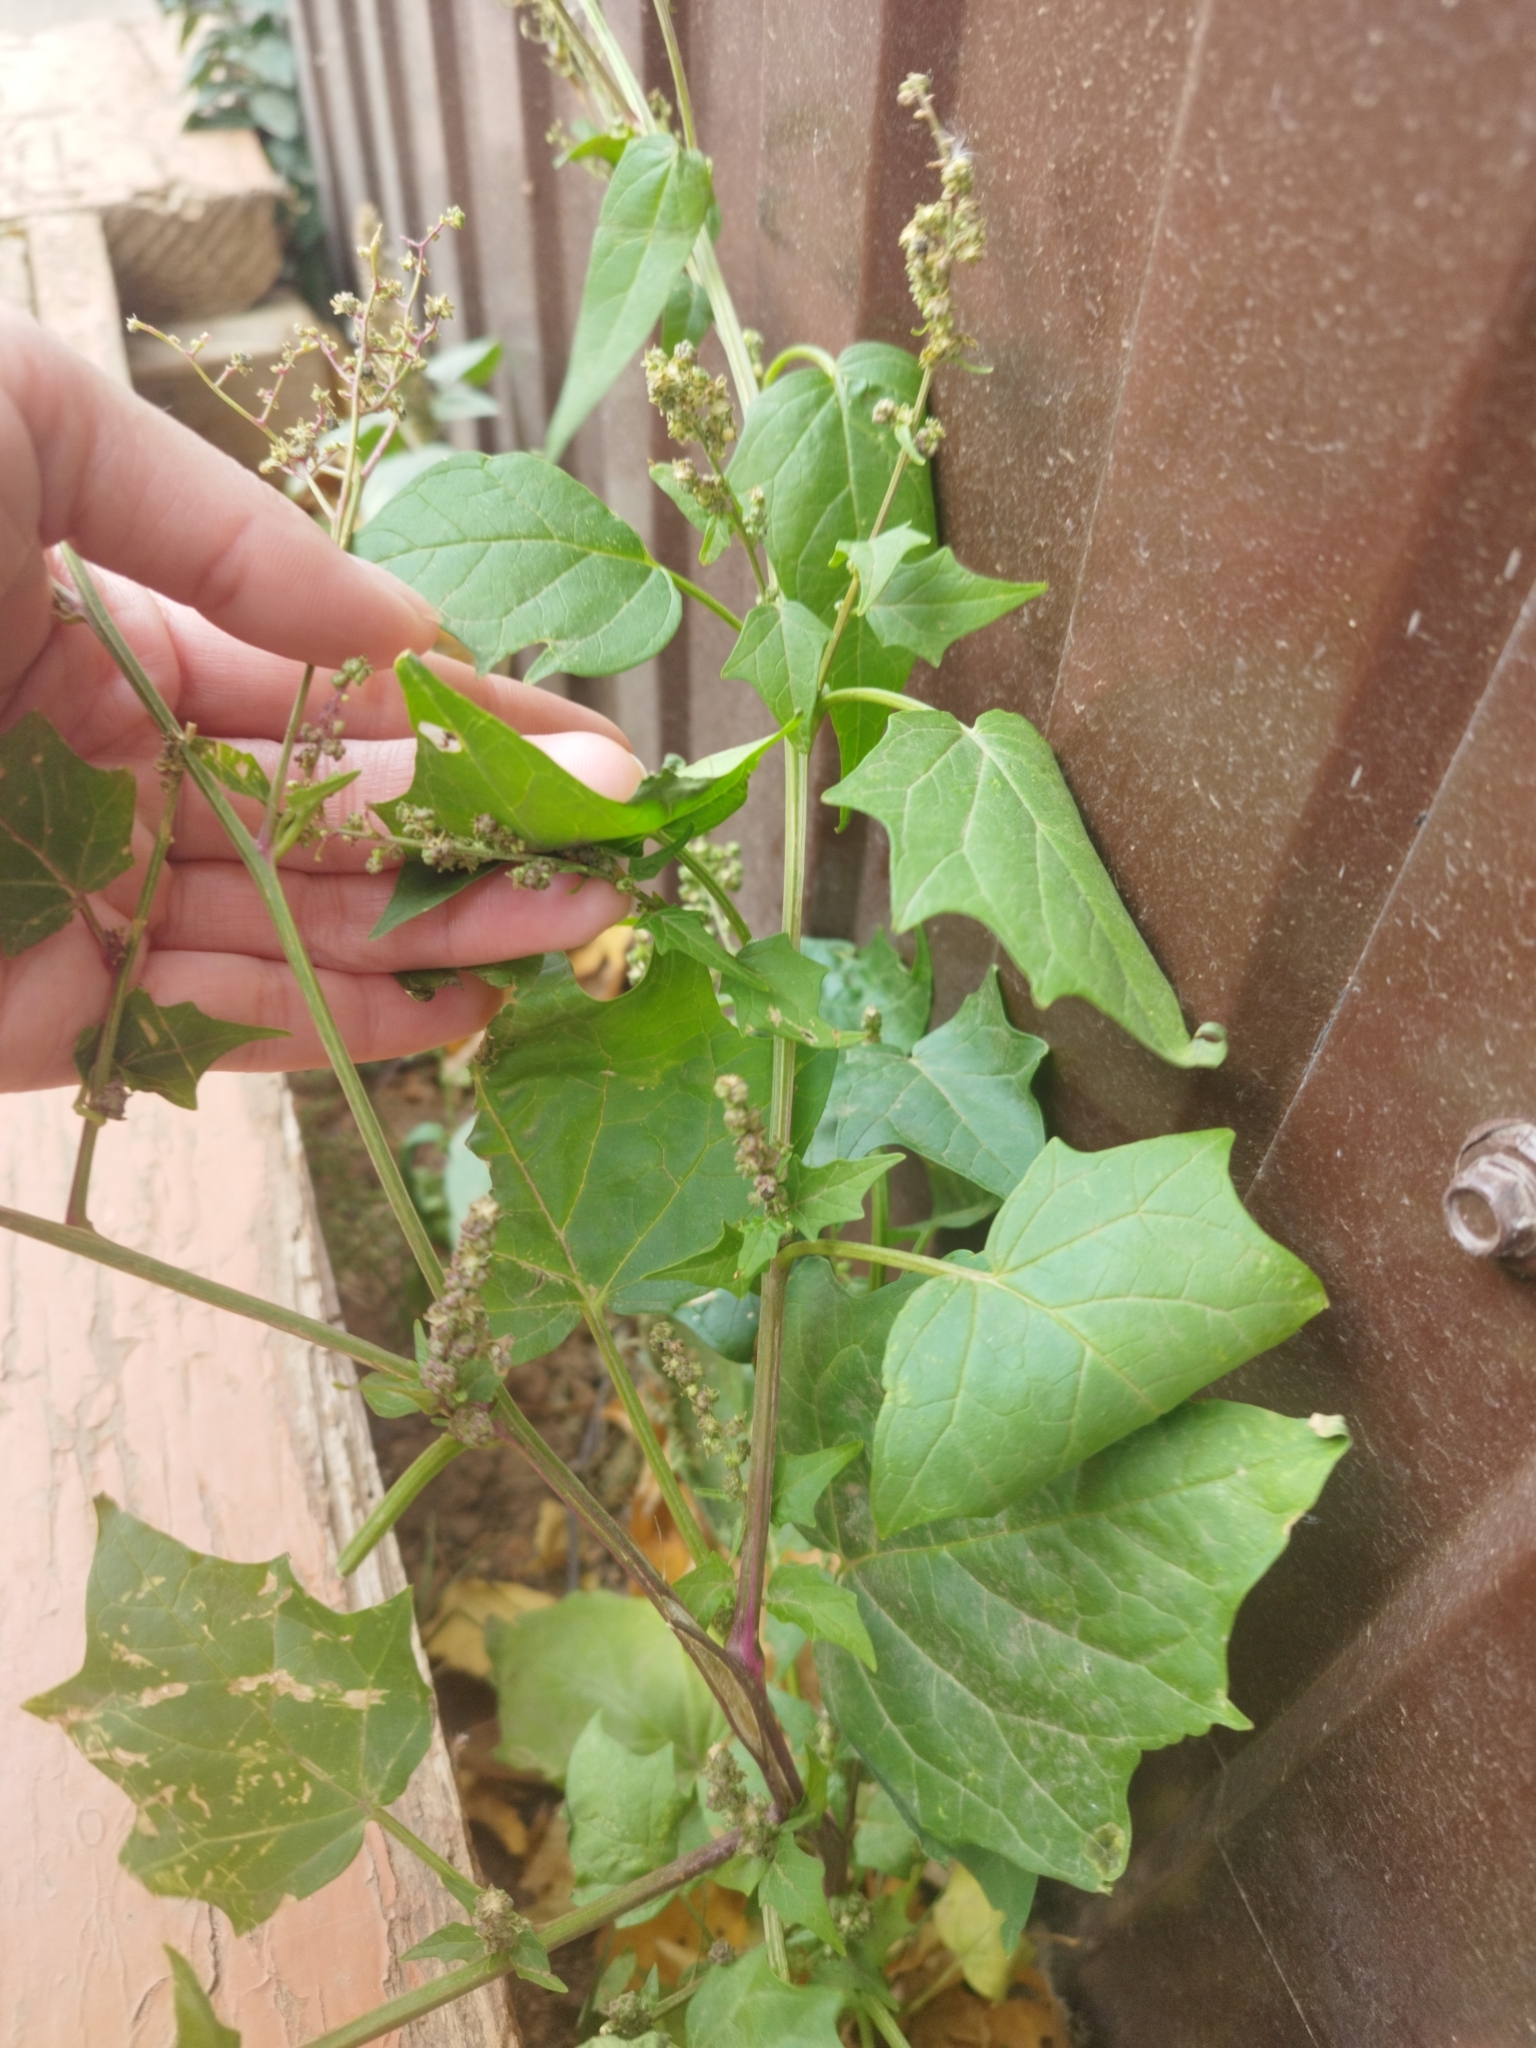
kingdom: Plantae
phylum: Tracheophyta
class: Magnoliopsida
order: Caryophyllales
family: Amaranthaceae
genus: Chenopodiastrum
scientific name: Chenopodiastrum hybridum
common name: Mapleleaf goosefoot
